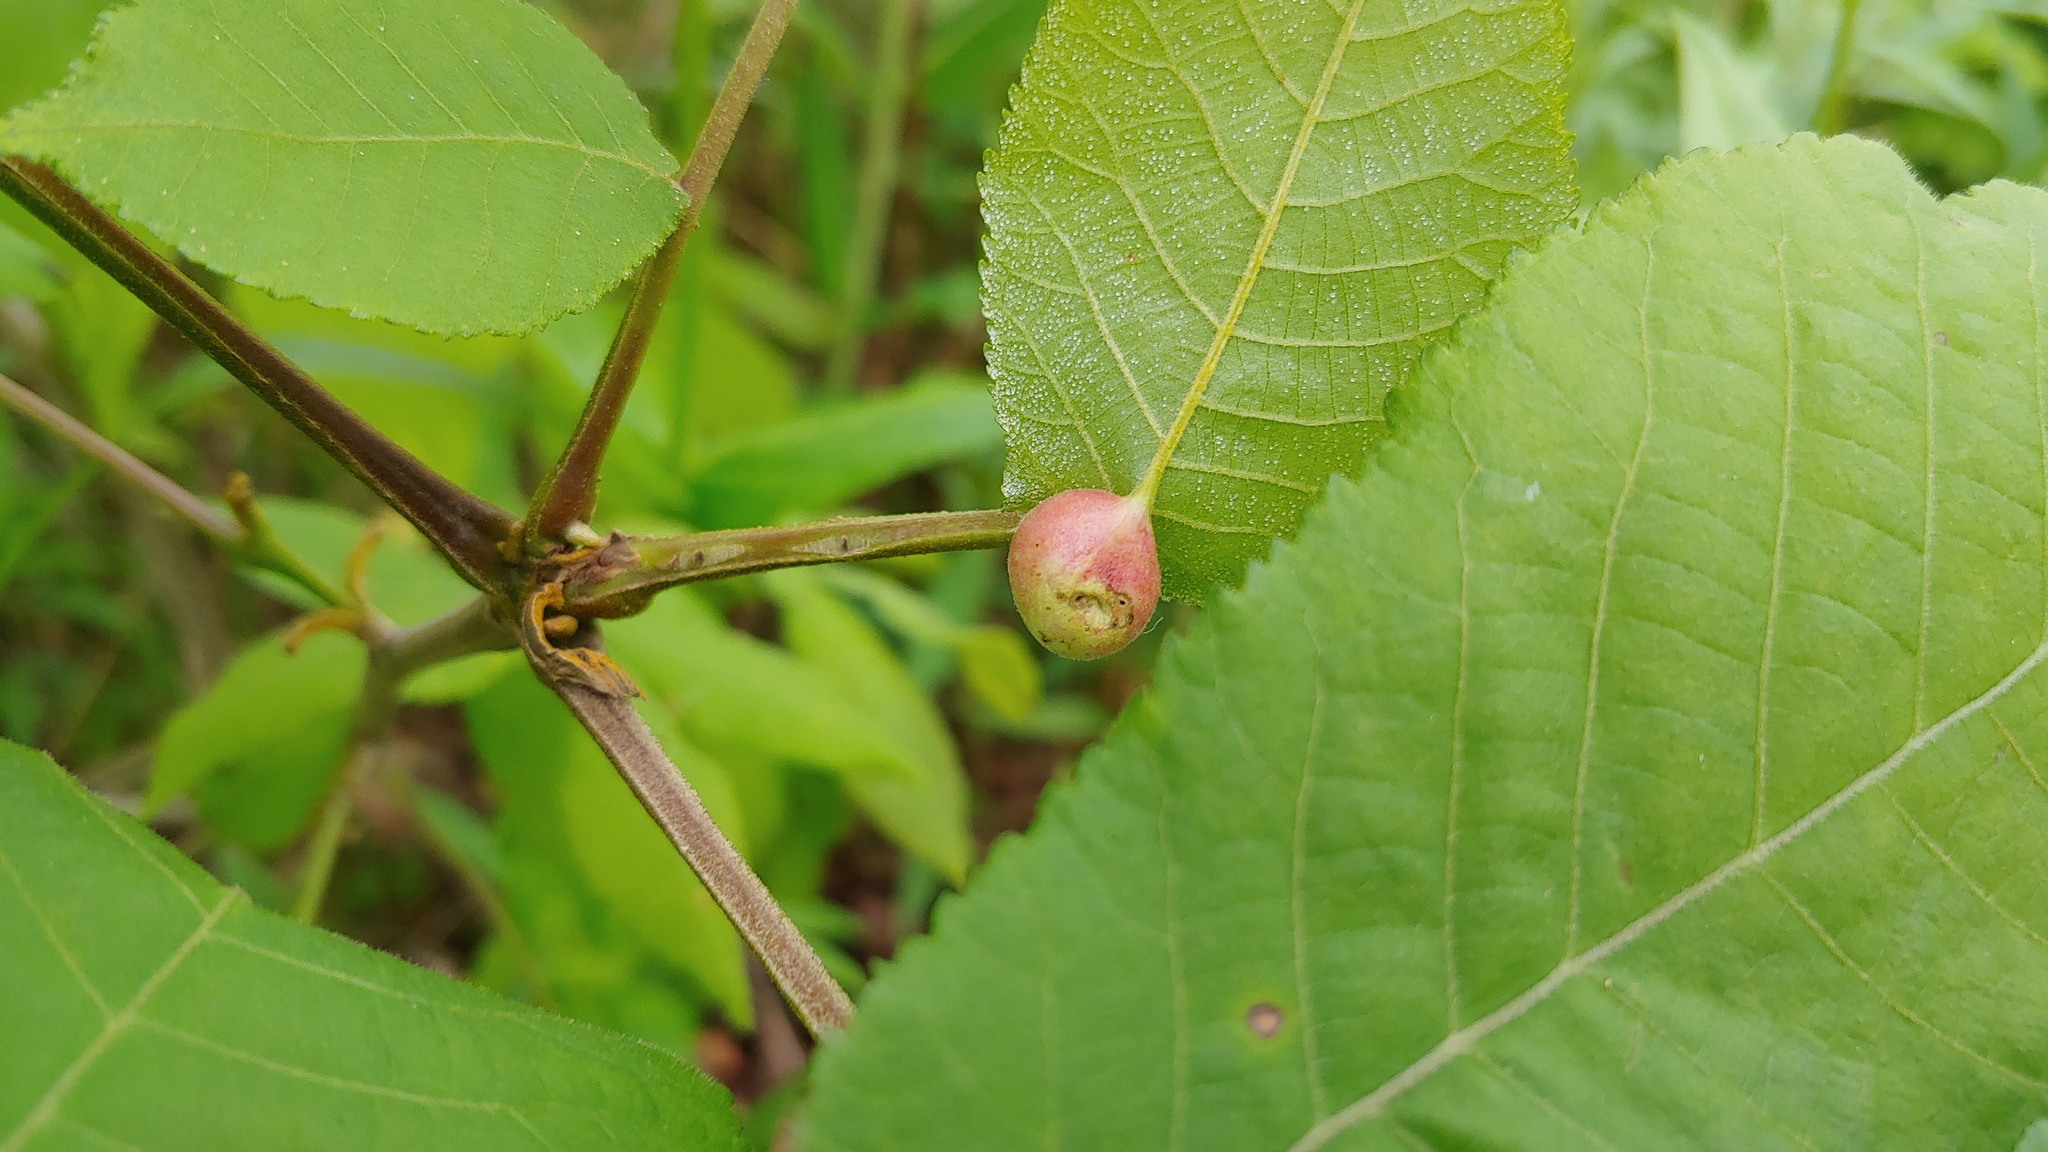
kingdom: Animalia
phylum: Arthropoda
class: Insecta
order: Hemiptera
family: Phylloxeridae
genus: Phylloxera
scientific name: Phylloxera
